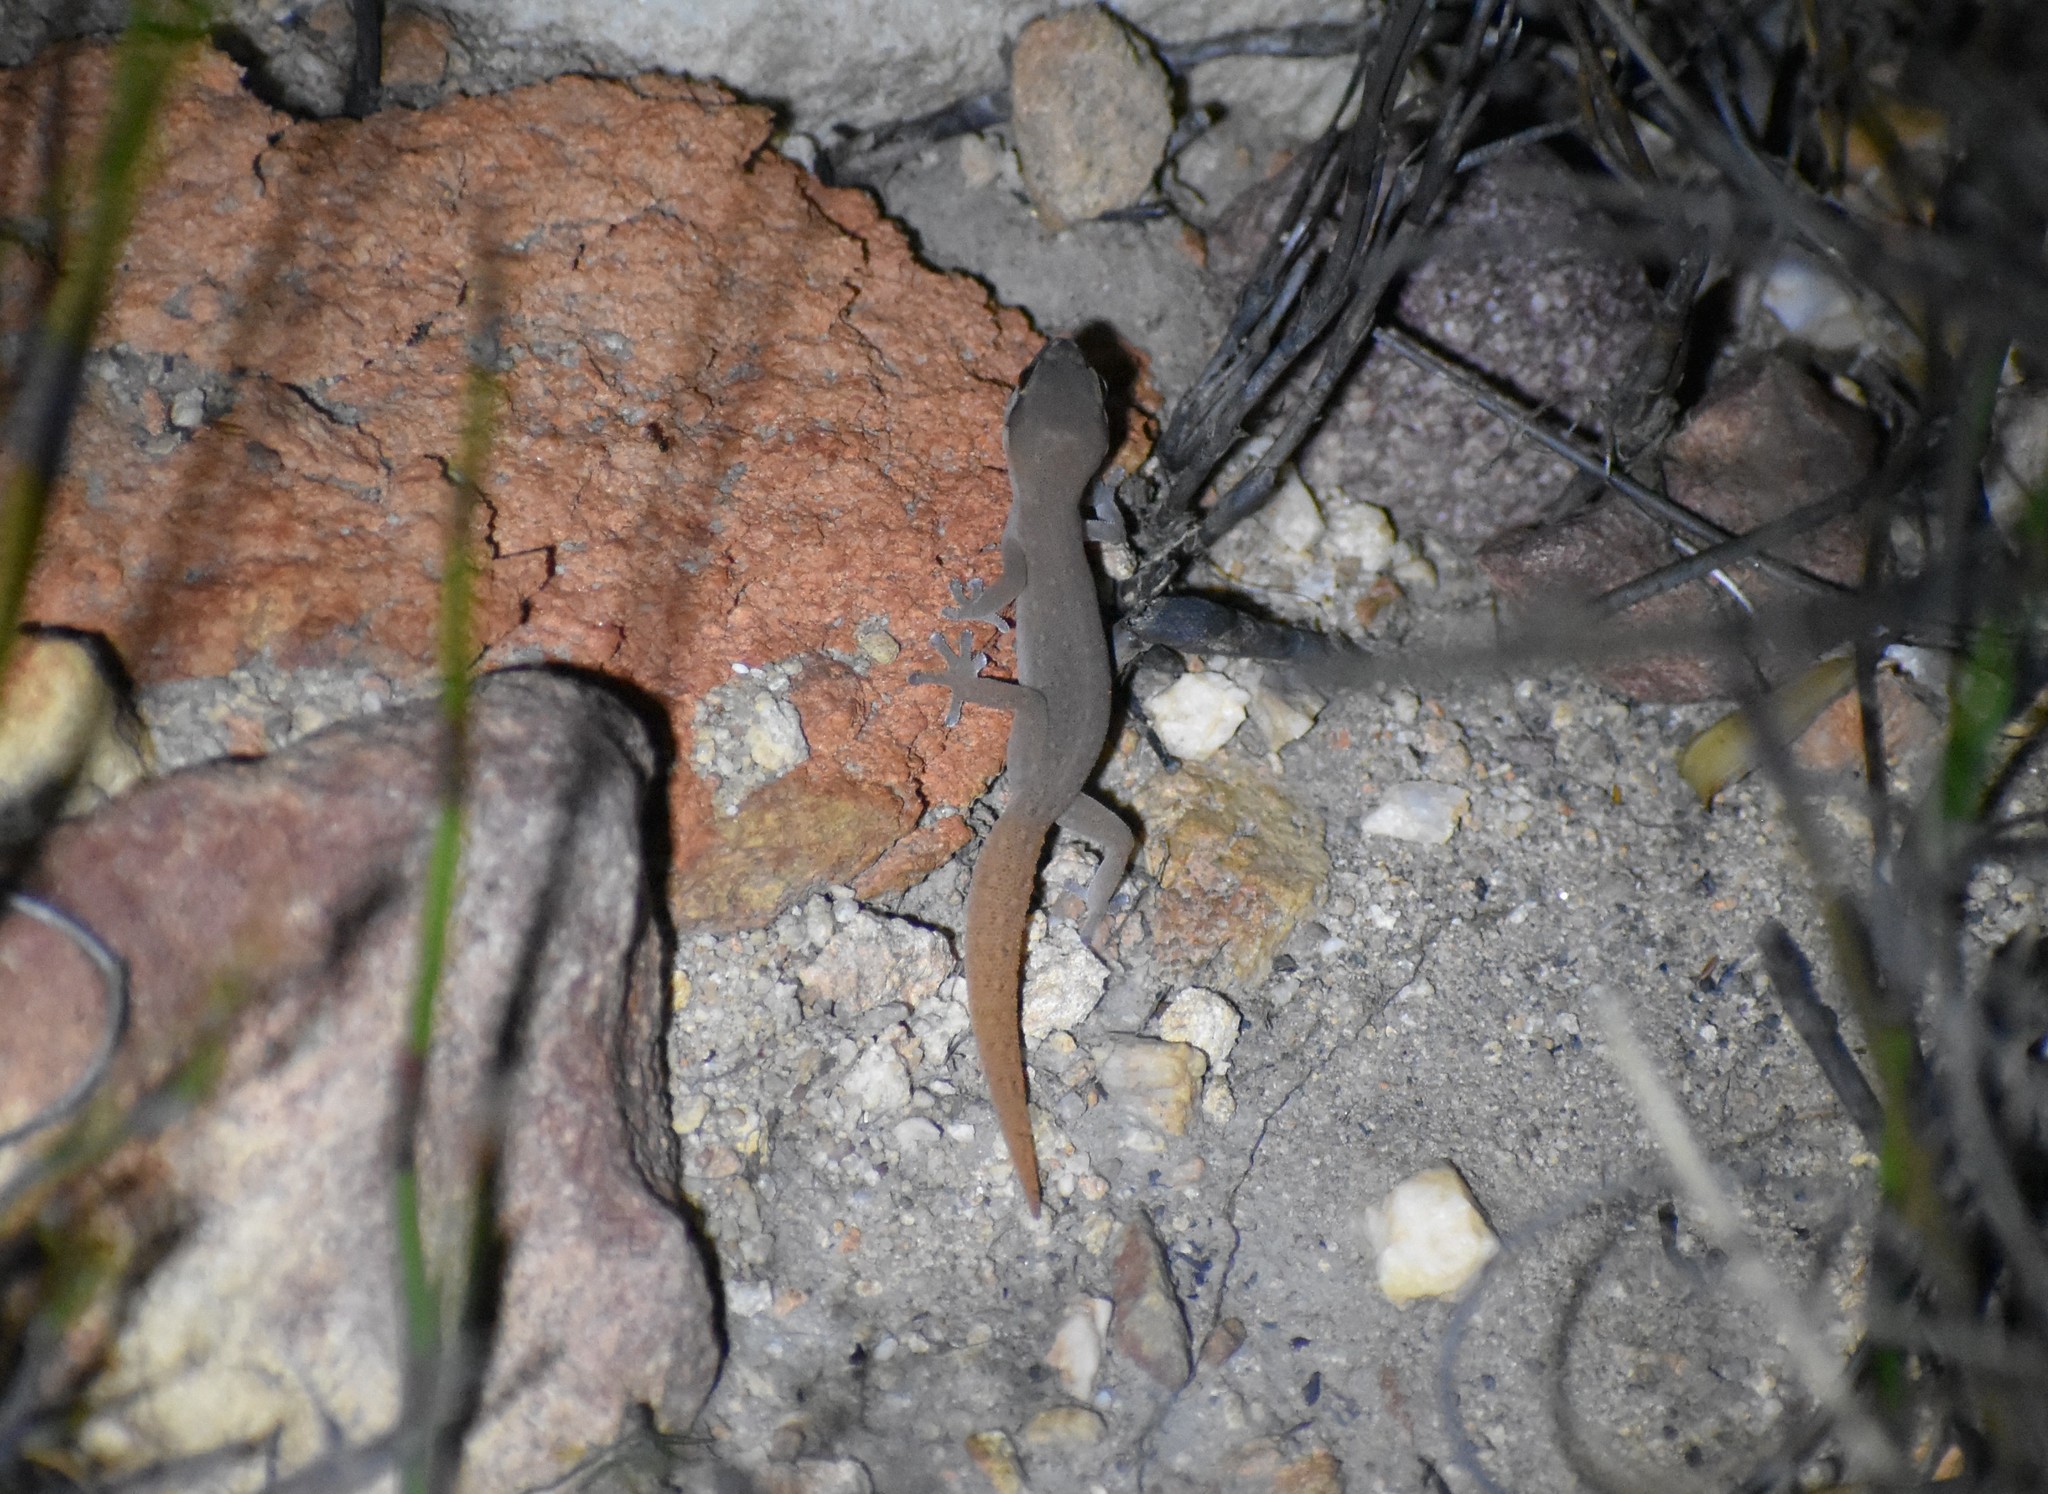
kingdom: Animalia
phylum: Chordata
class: Squamata
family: Gekkonidae
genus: Pachydactylus
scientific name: Pachydactylus geitje
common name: Ocellated thick-toed gecko
